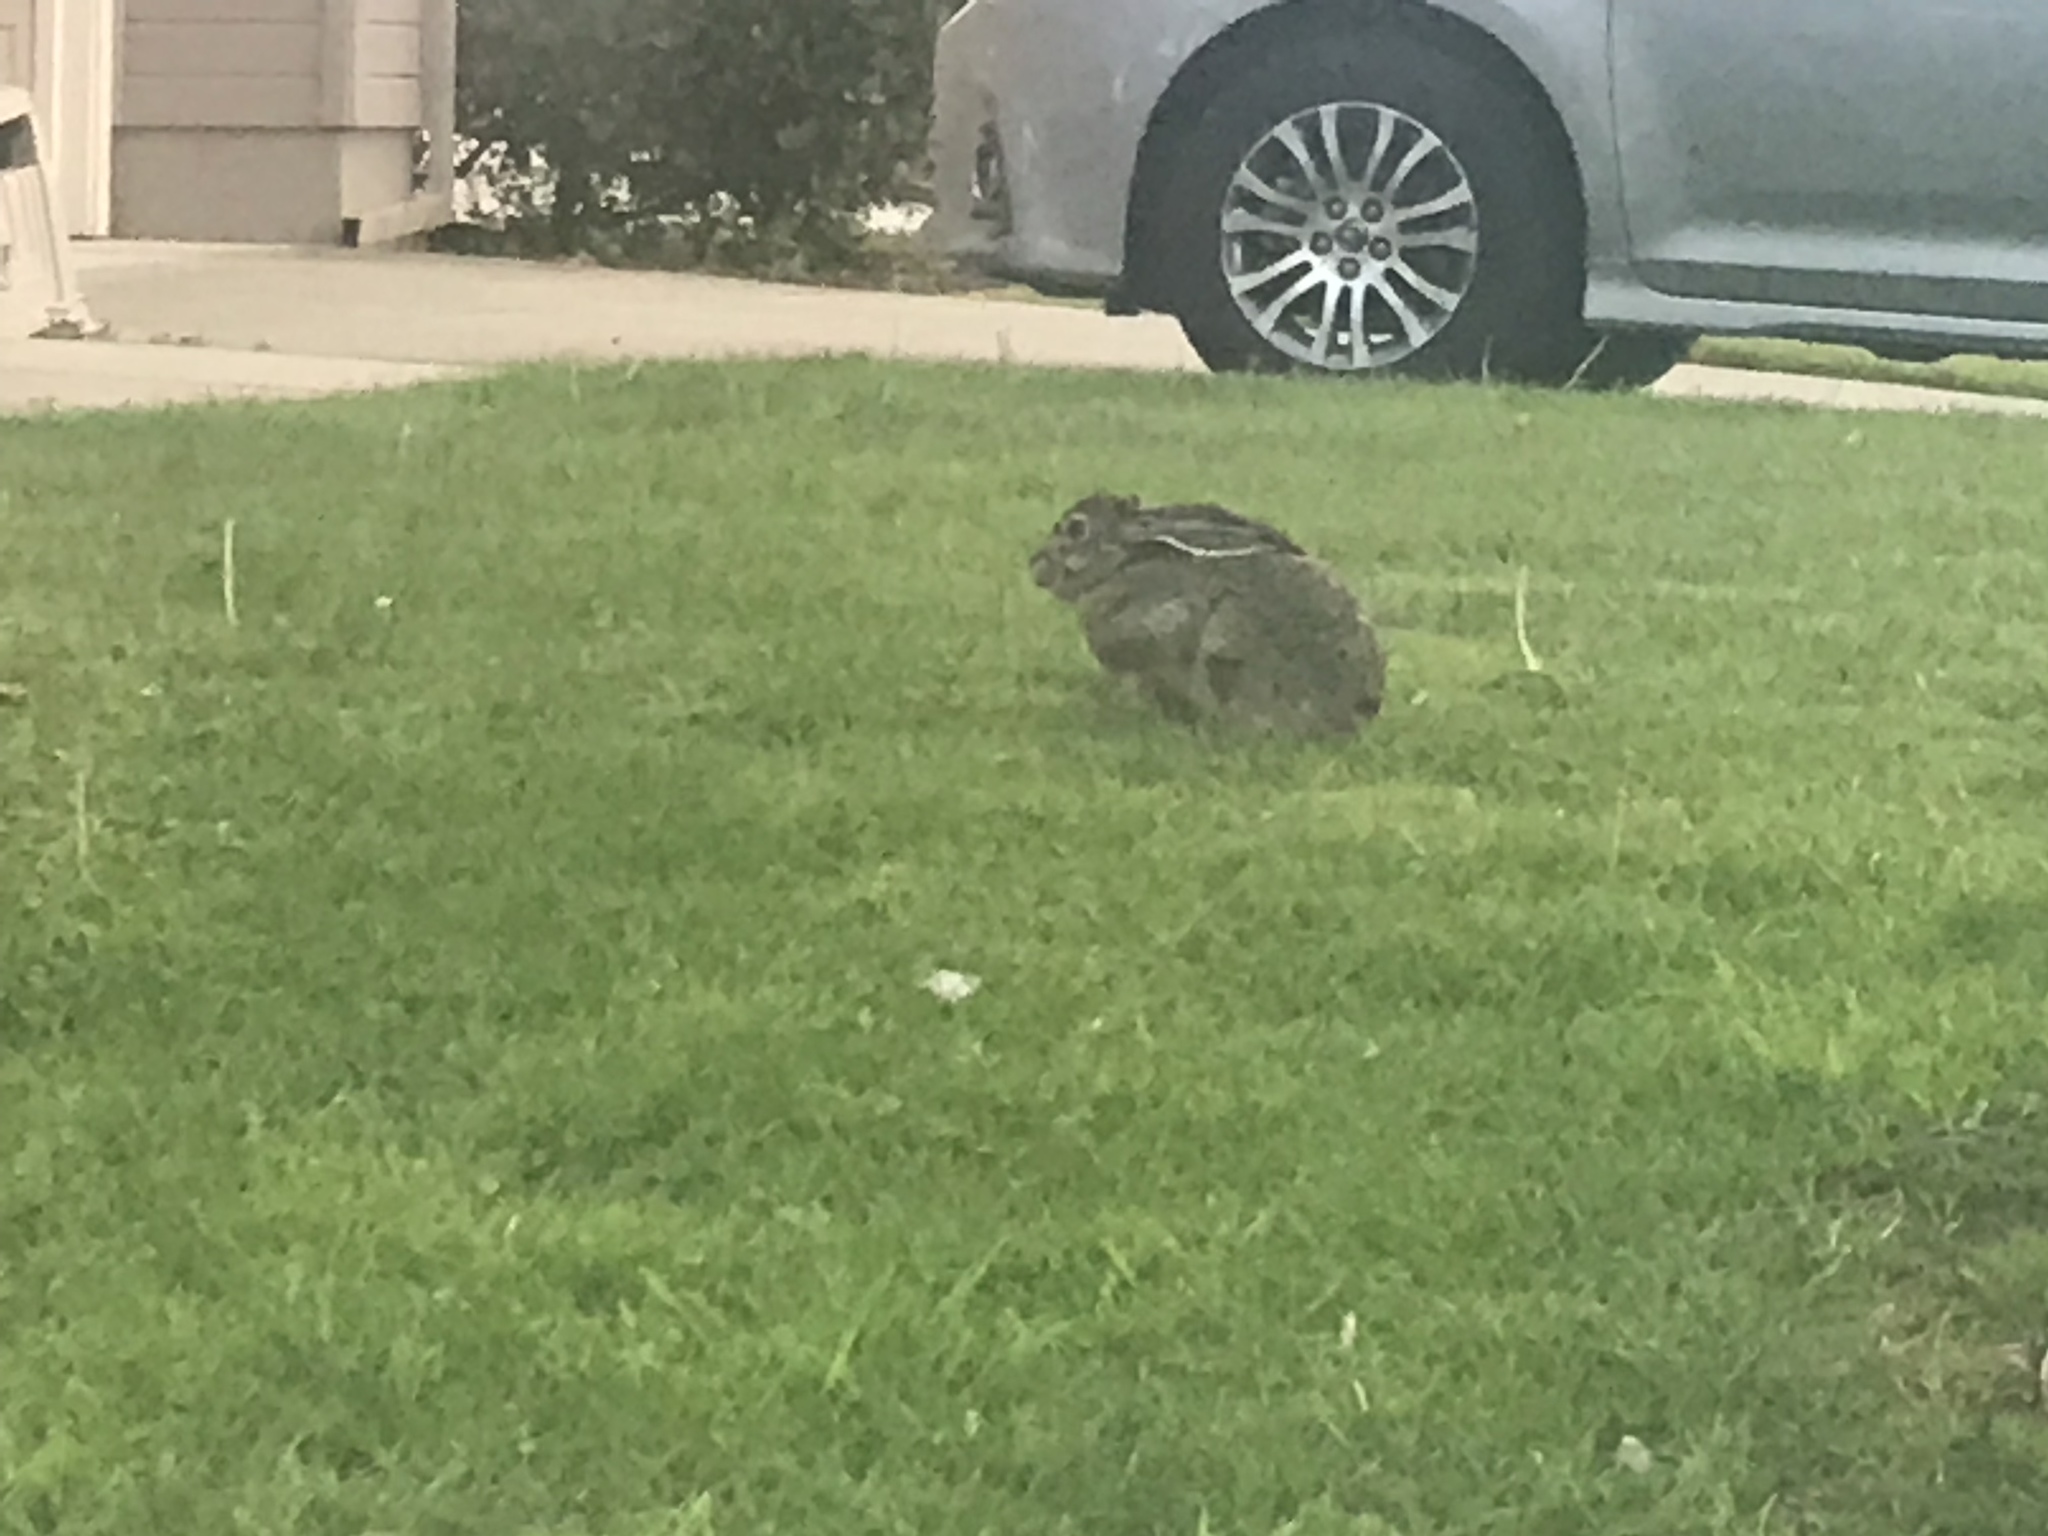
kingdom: Animalia
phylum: Chordata
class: Mammalia
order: Lagomorpha
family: Leporidae
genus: Lepus
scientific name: Lepus californicus
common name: Black-tailed jackrabbit
